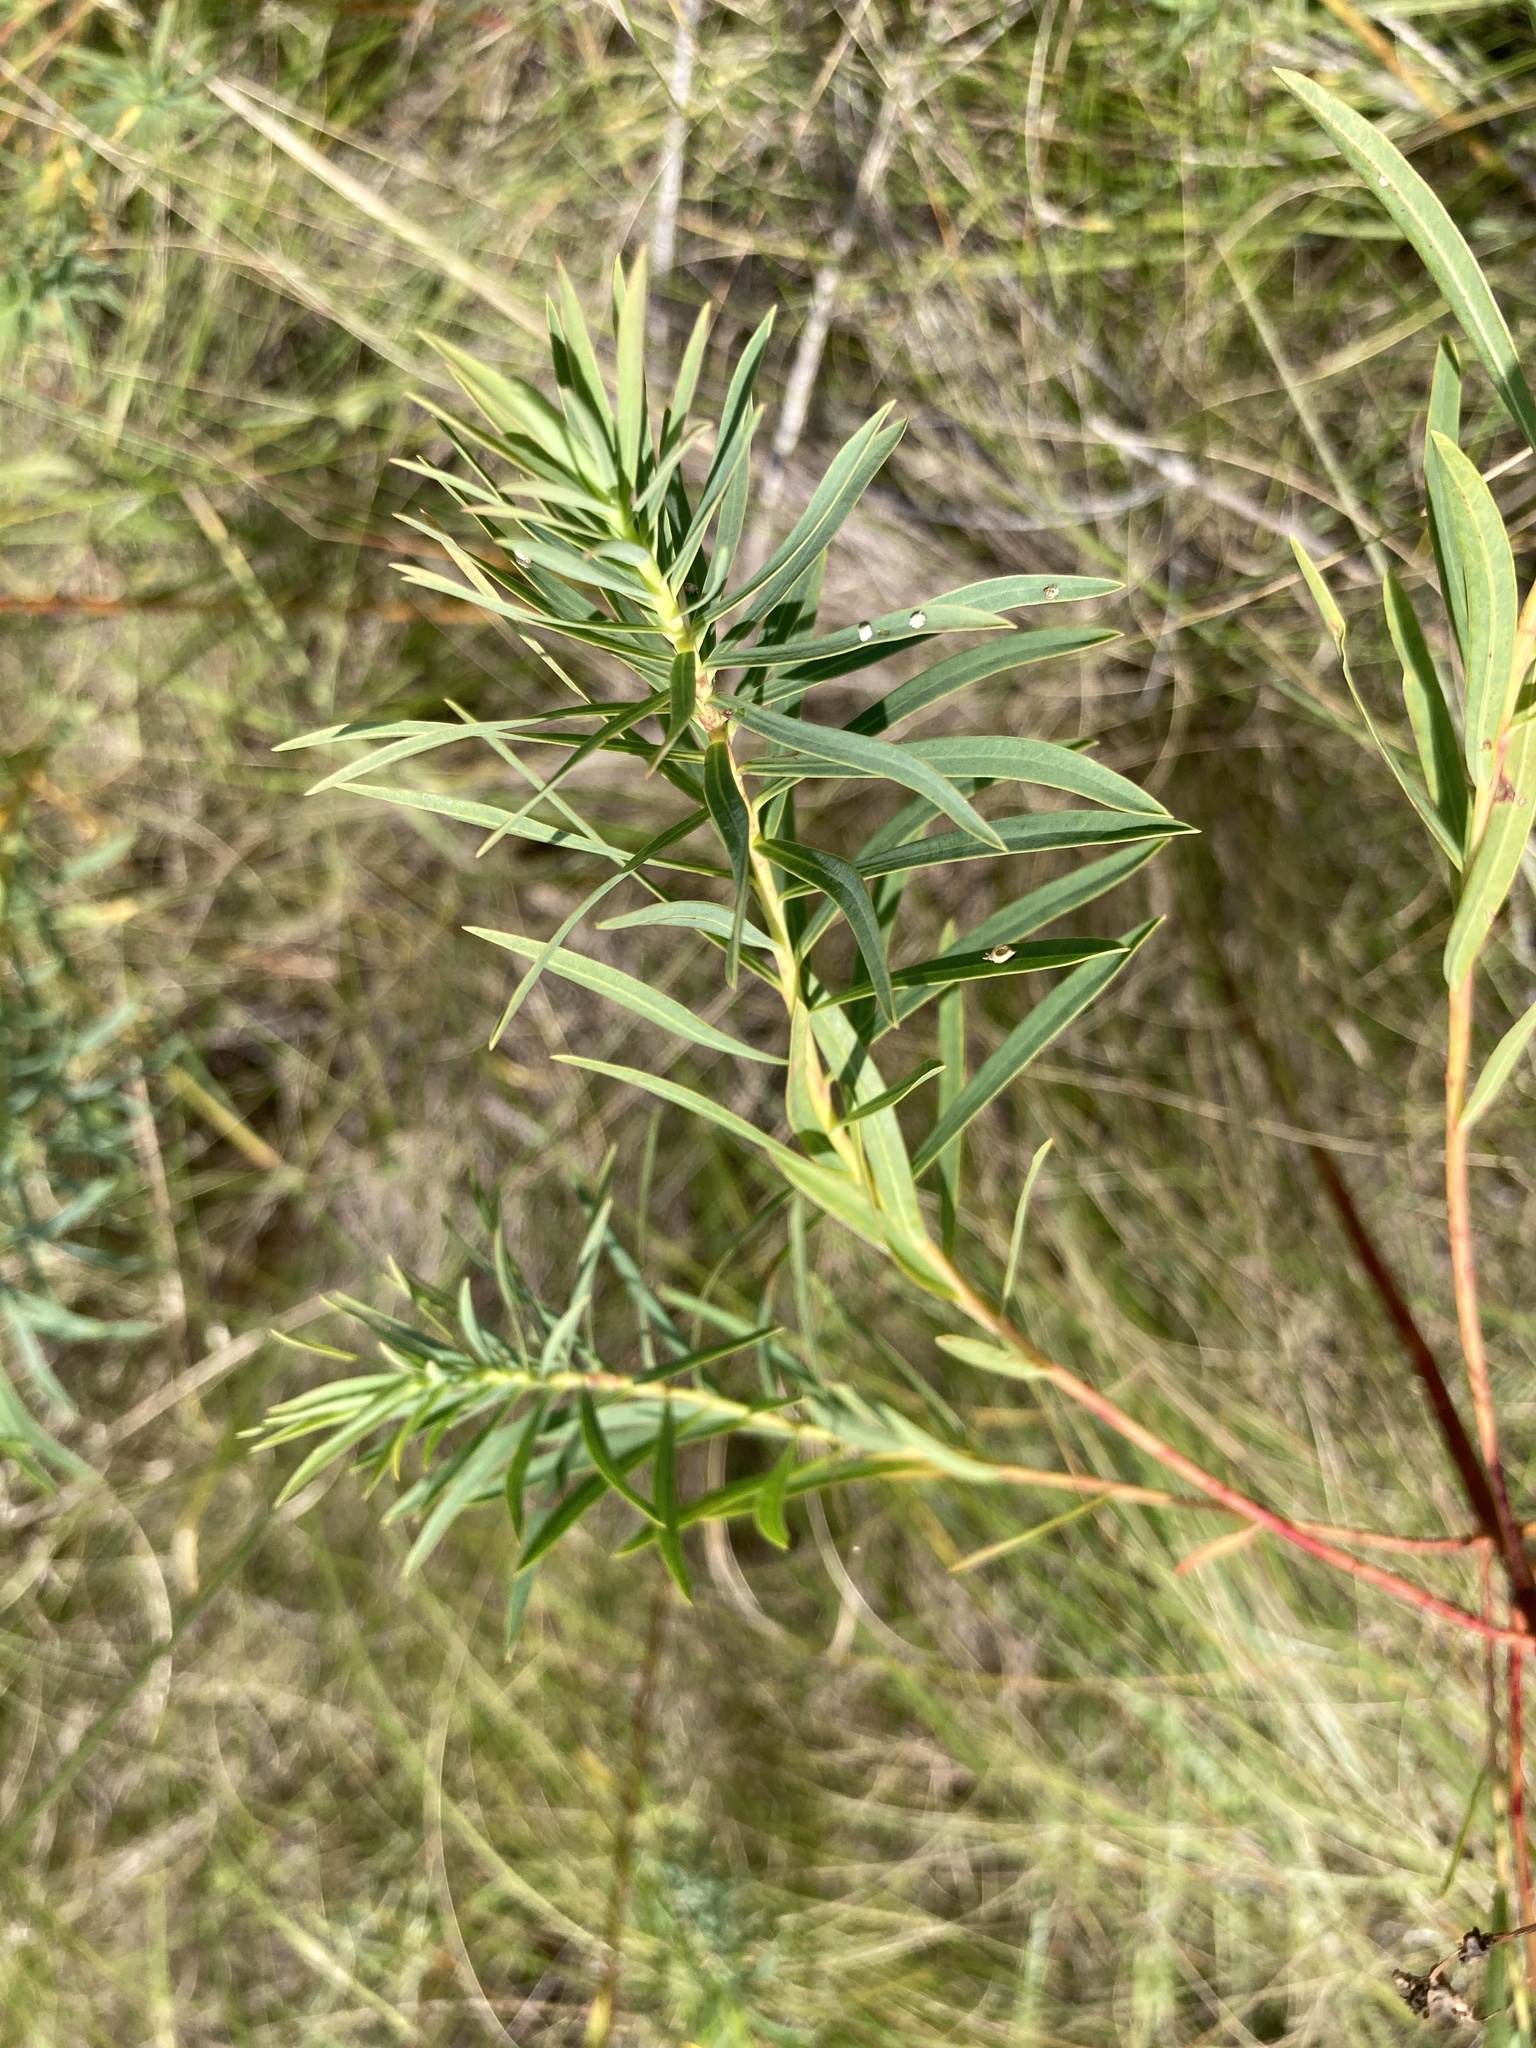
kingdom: Plantae
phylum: Tracheophyta
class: Magnoliopsida
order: Malpighiales
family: Euphorbiaceae
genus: Euphorbia
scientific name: Euphorbia virgata
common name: Leafy spurge
